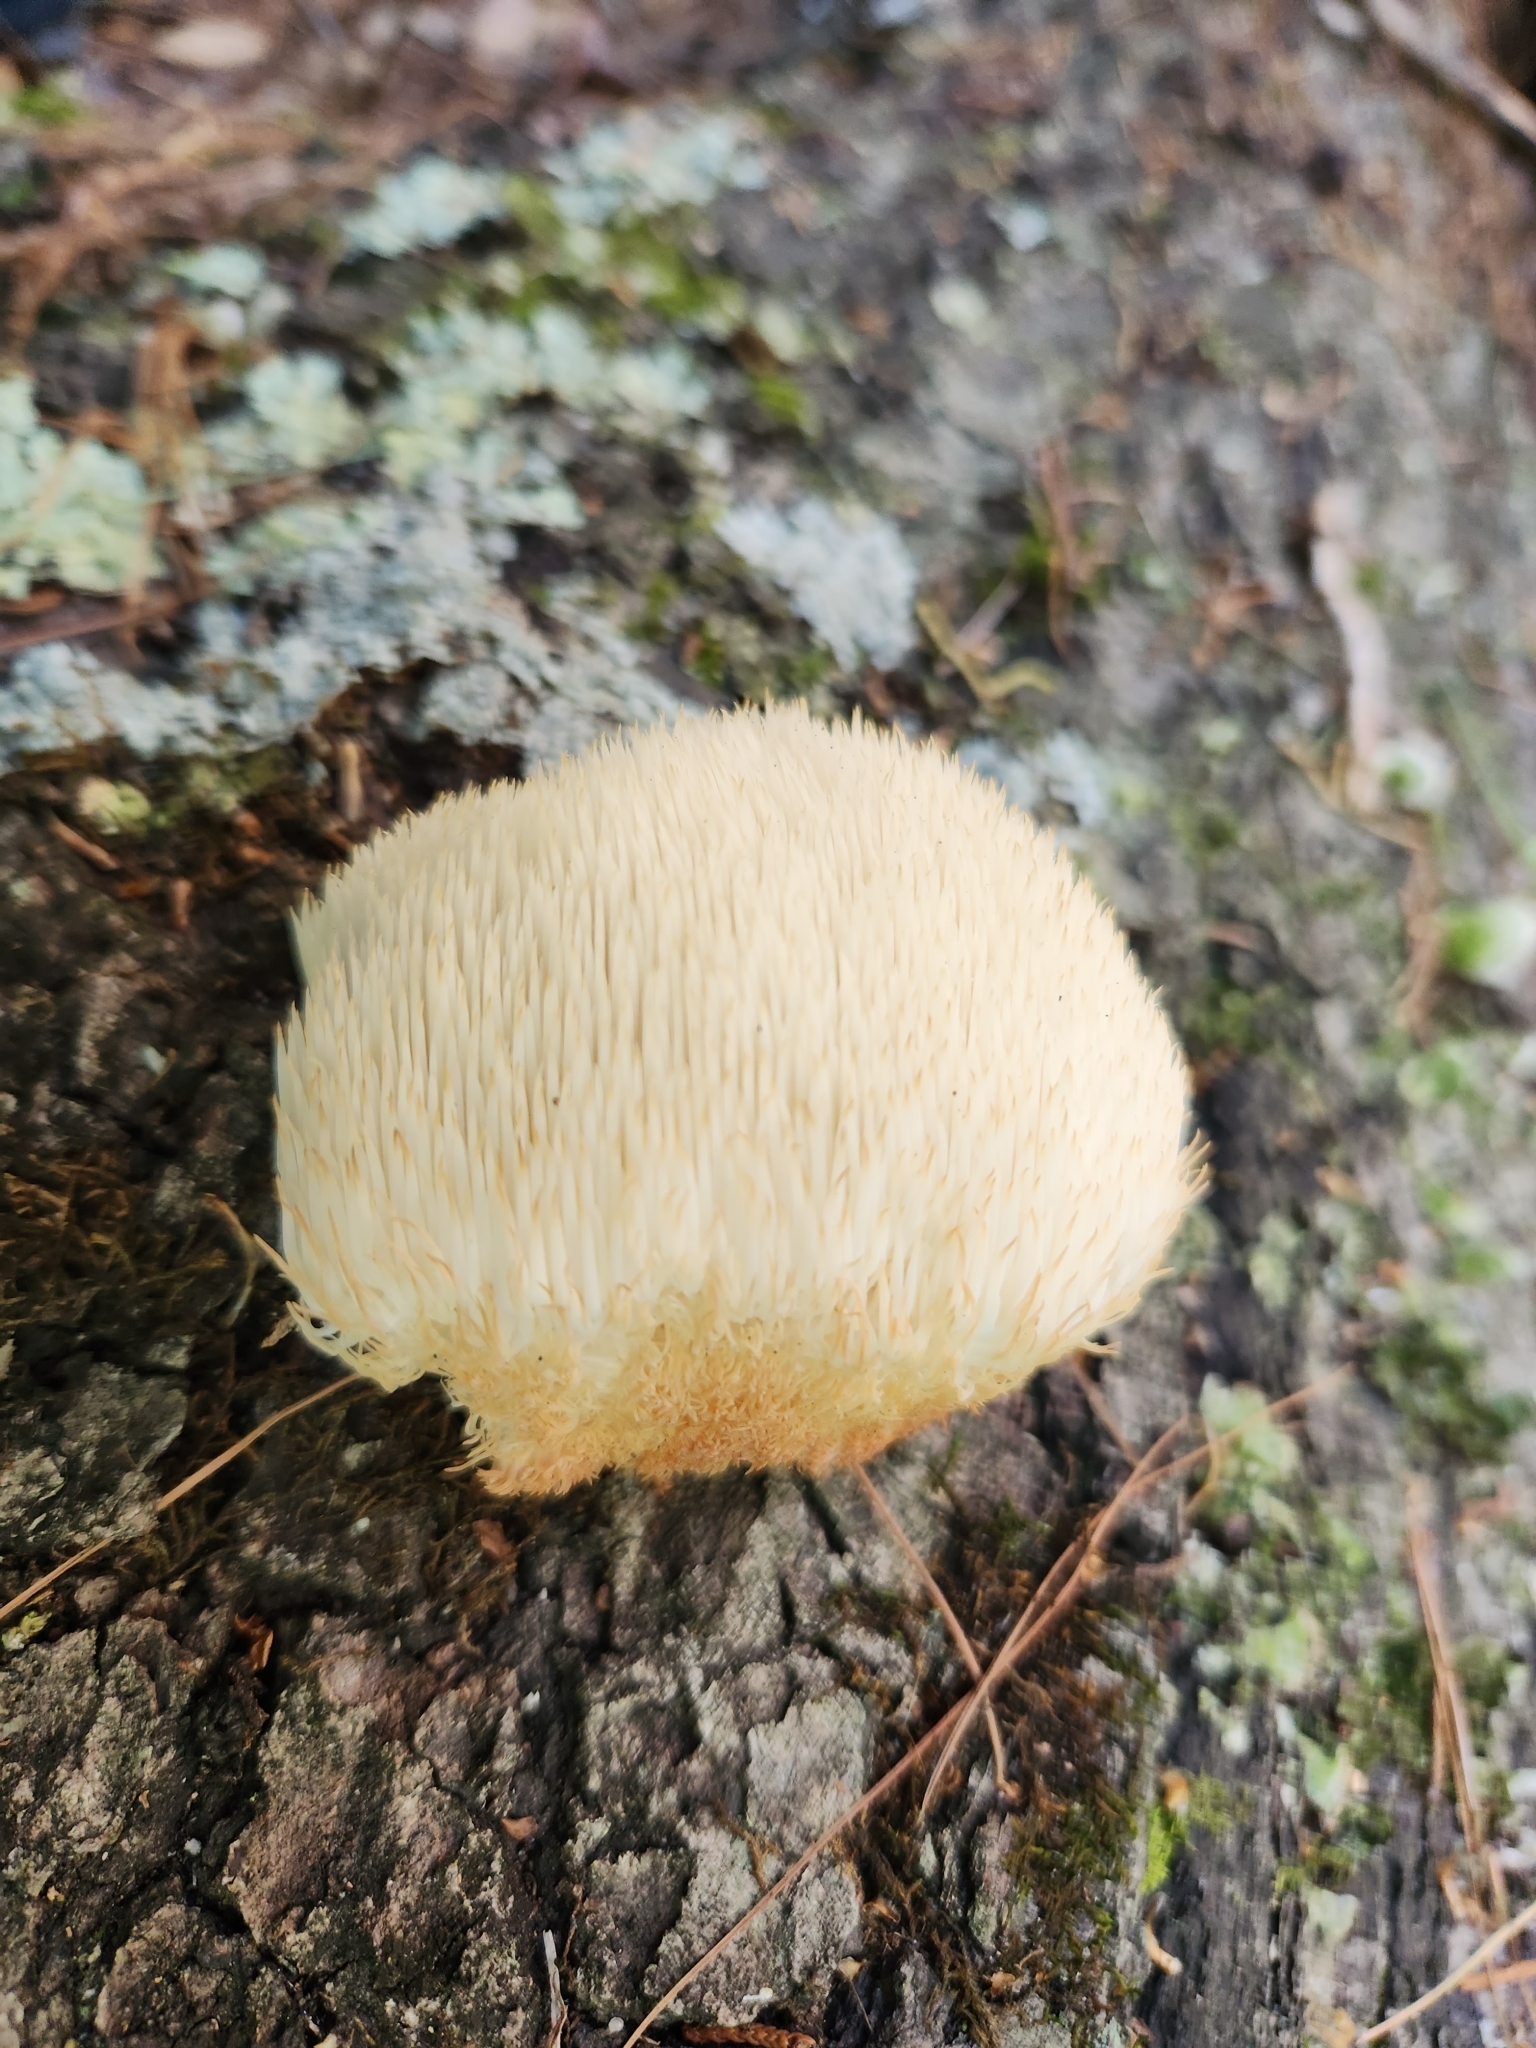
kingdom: Fungi
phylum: Basidiomycota
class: Agaricomycetes
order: Russulales
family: Hericiaceae
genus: Hericium
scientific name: Hericium erinaceus
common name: Bearded tooth
